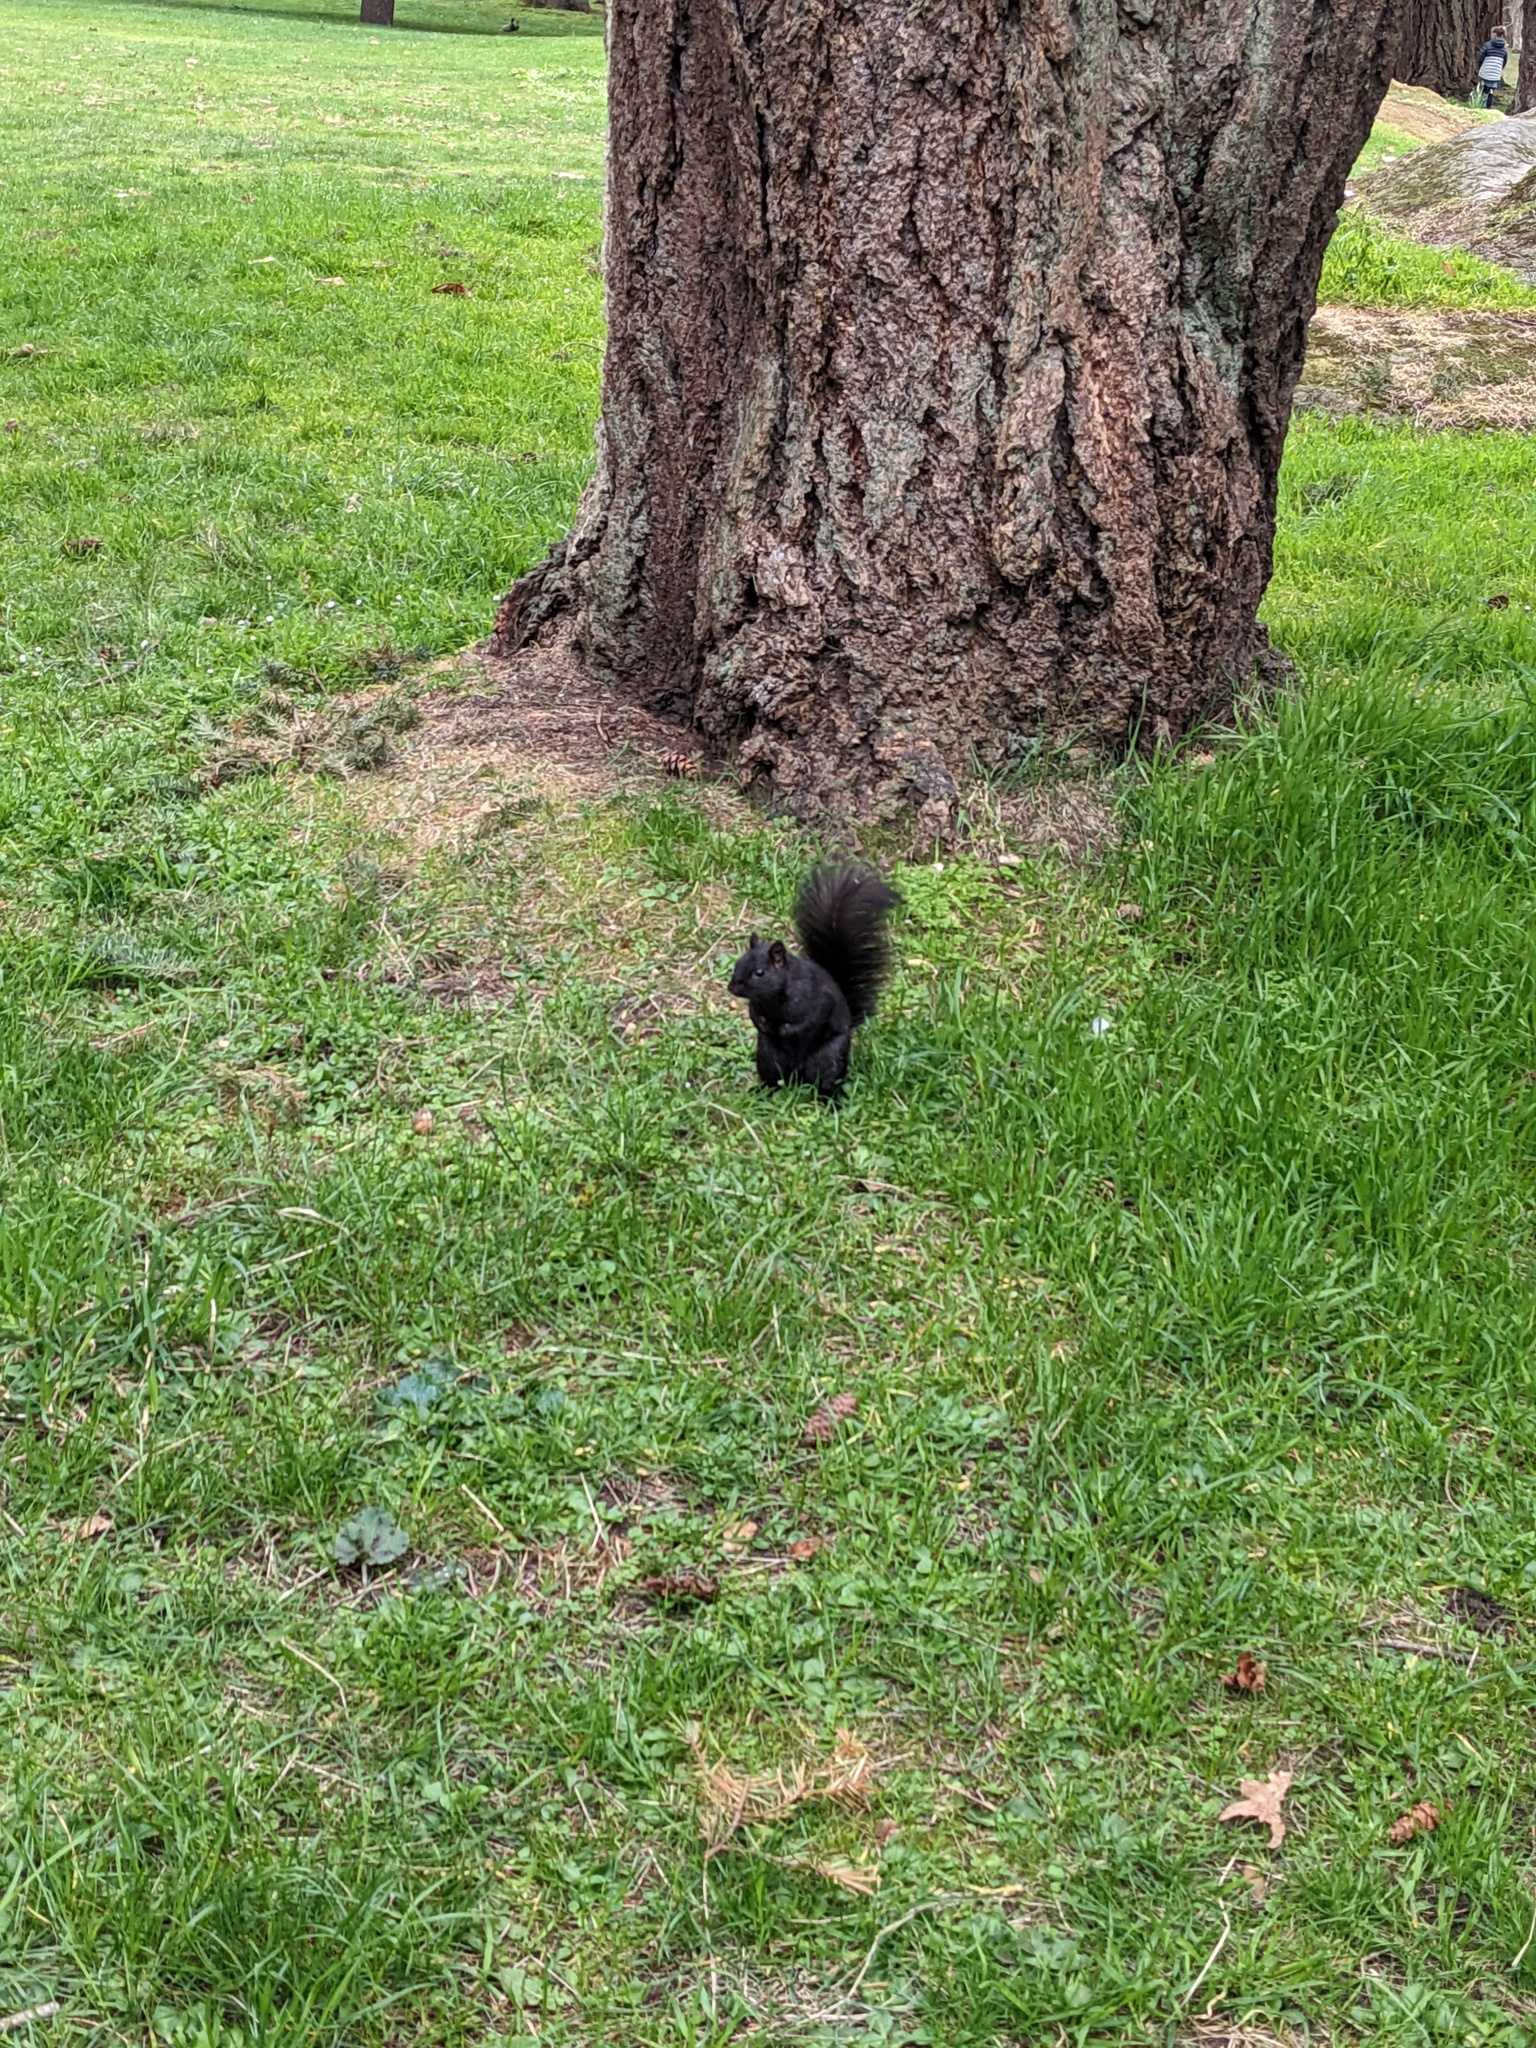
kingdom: Animalia
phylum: Chordata
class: Mammalia
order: Rodentia
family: Sciuridae
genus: Sciurus
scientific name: Sciurus carolinensis
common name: Eastern gray squirrel
